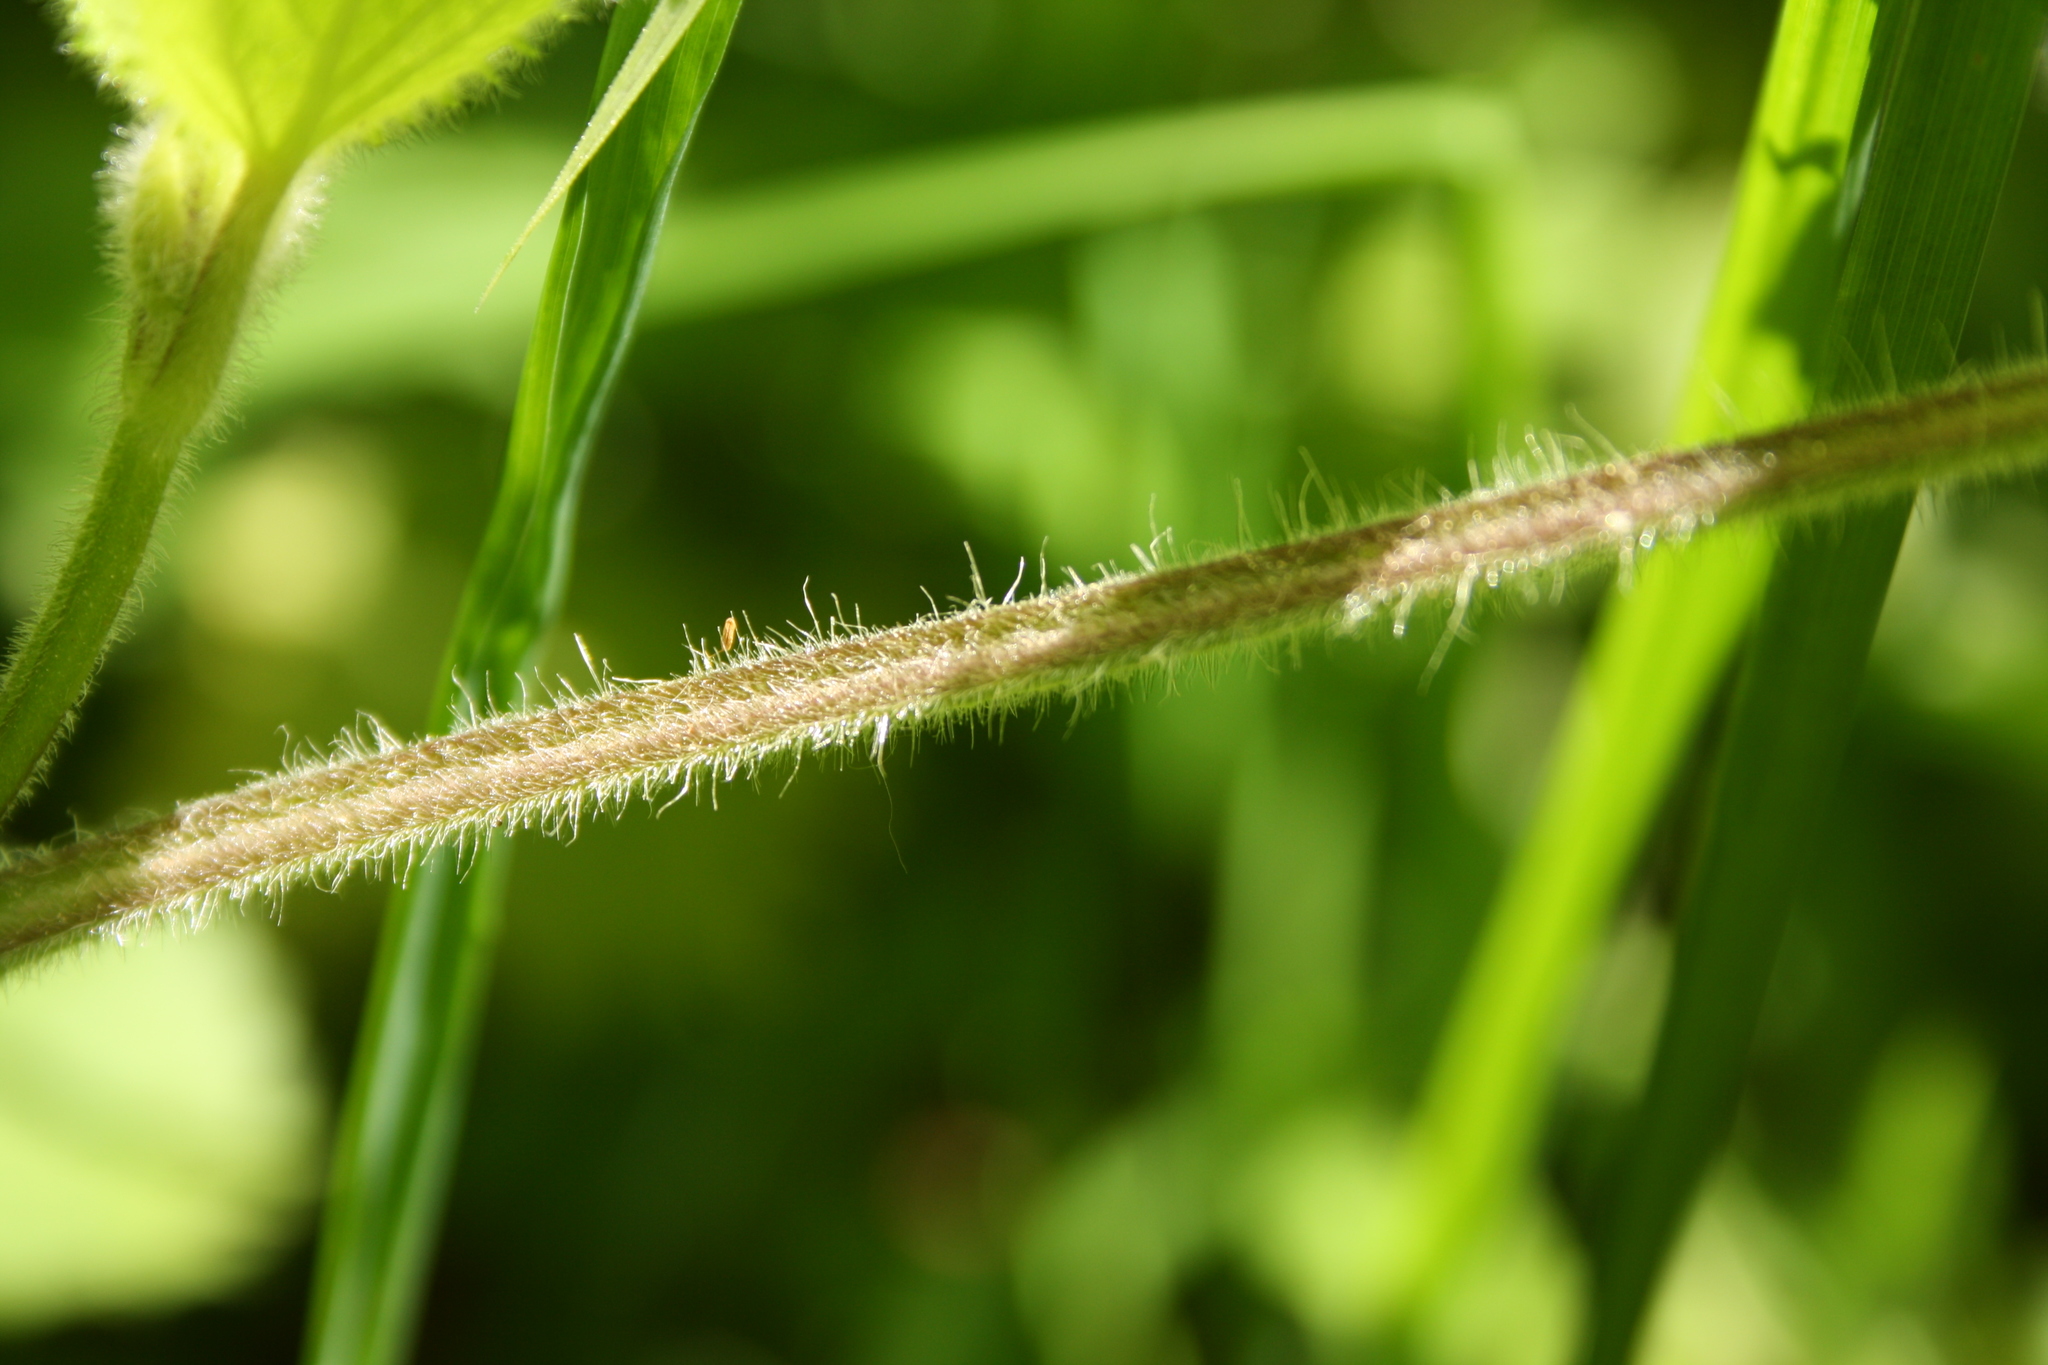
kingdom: Plantae
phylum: Tracheophyta
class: Magnoliopsida
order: Lamiales
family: Lamiaceae
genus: Stachys
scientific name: Stachys sylvatica
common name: Hedge woundwort
